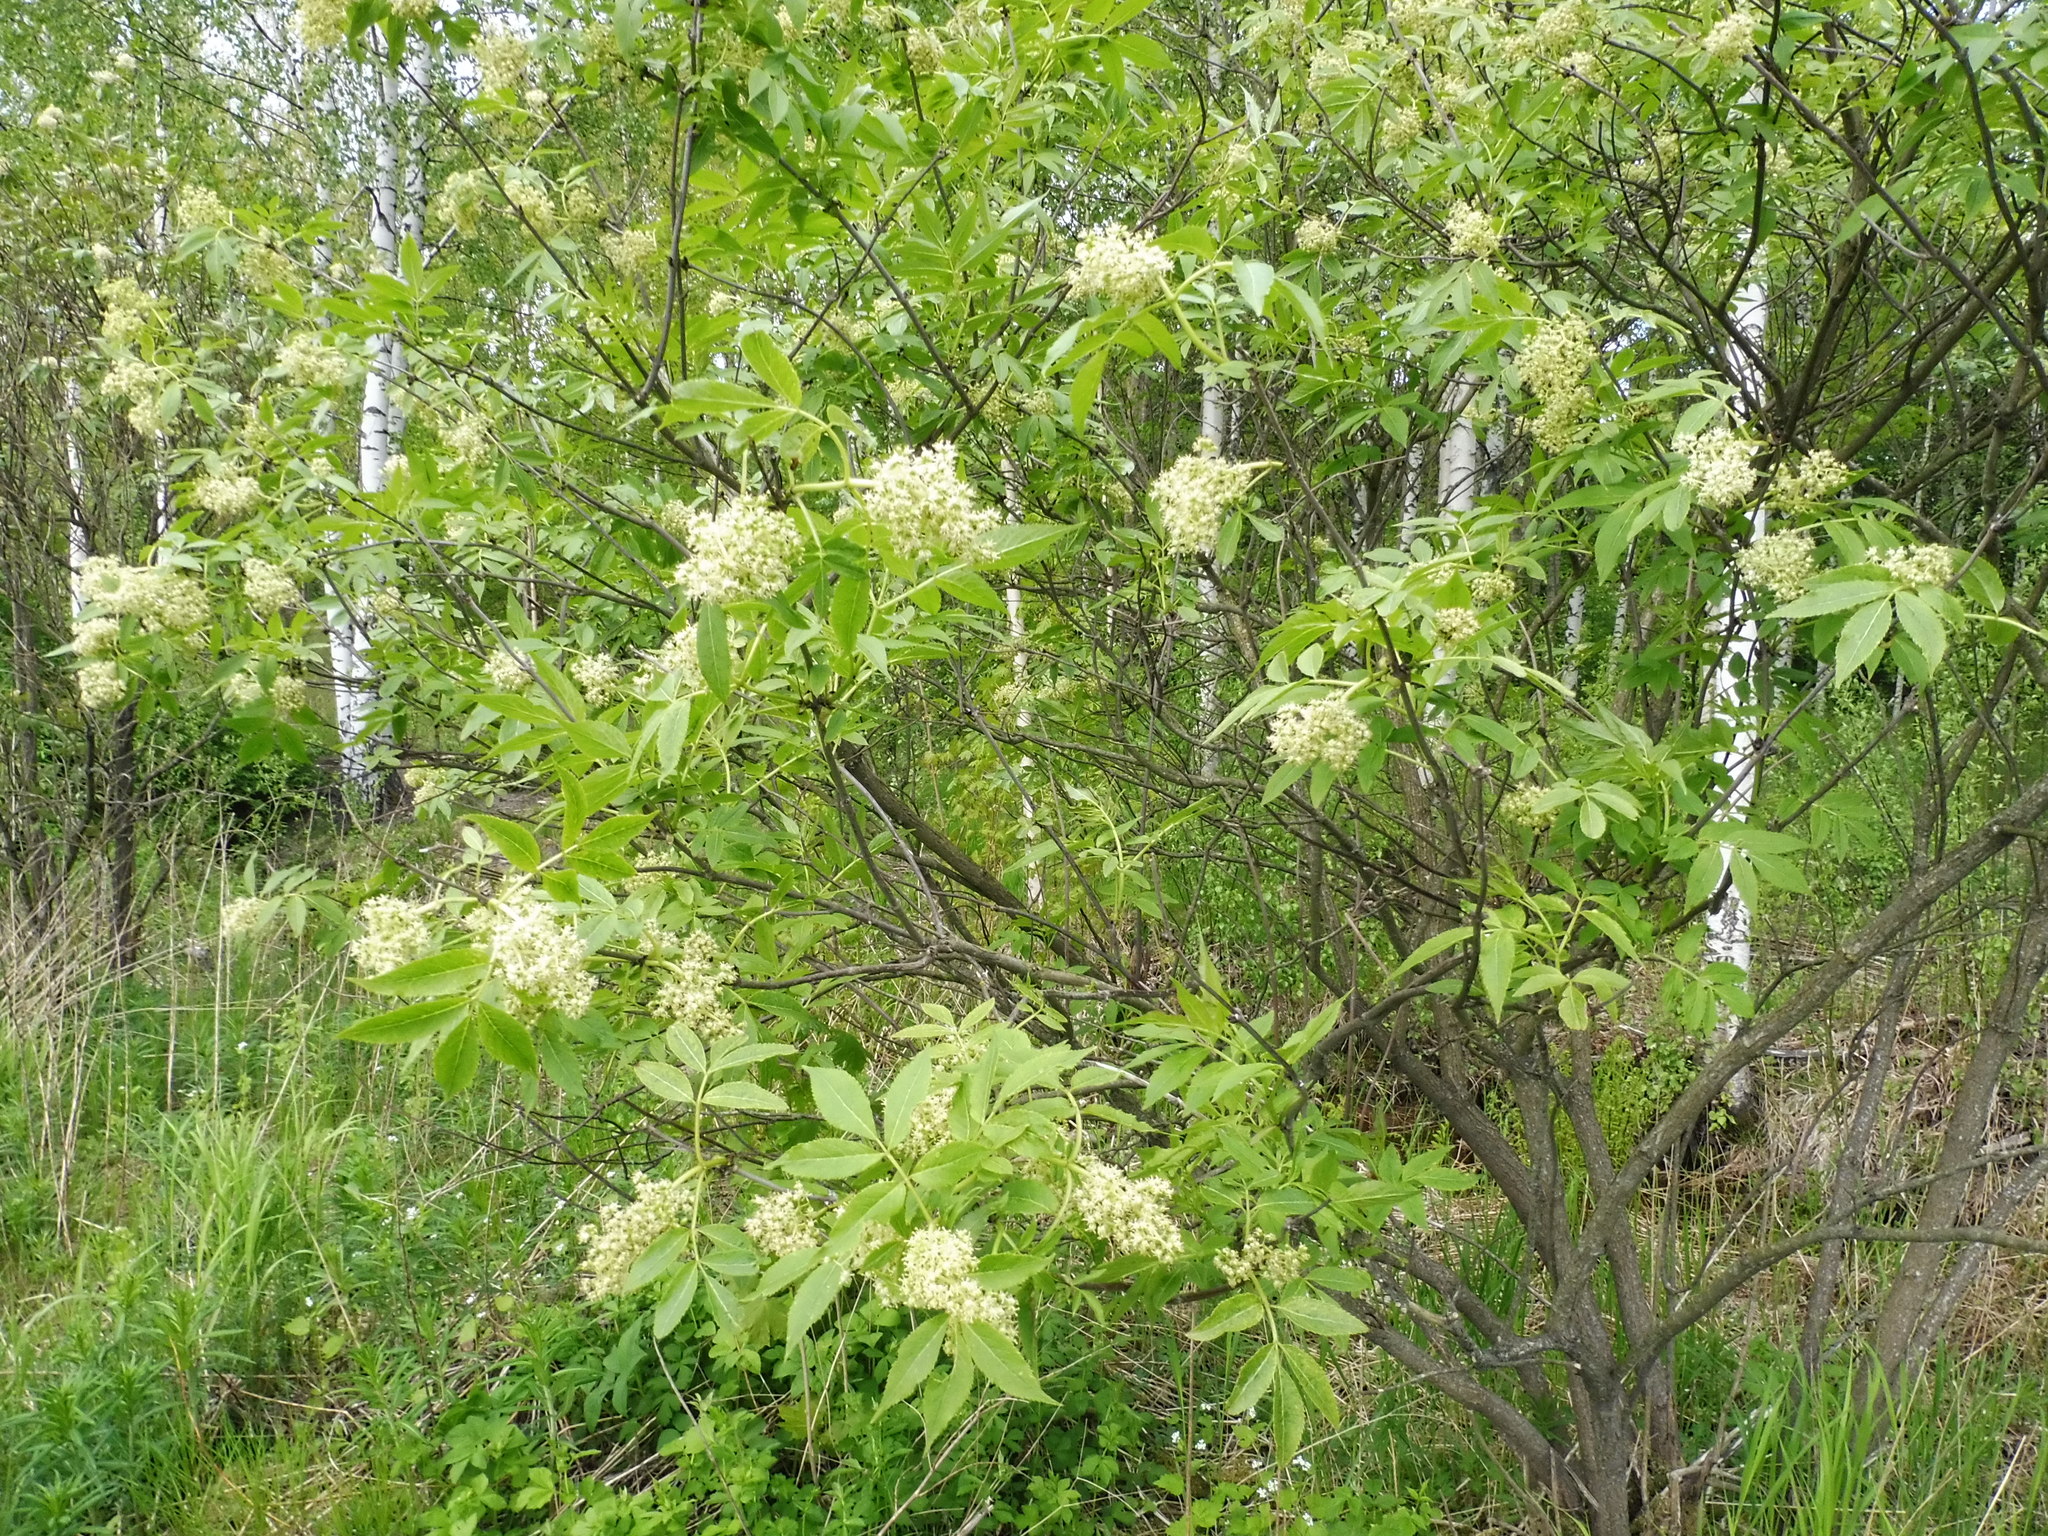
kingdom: Plantae
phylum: Tracheophyta
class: Magnoliopsida
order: Dipsacales
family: Viburnaceae
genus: Sambucus
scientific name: Sambucus racemosa
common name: Red-berried elder
